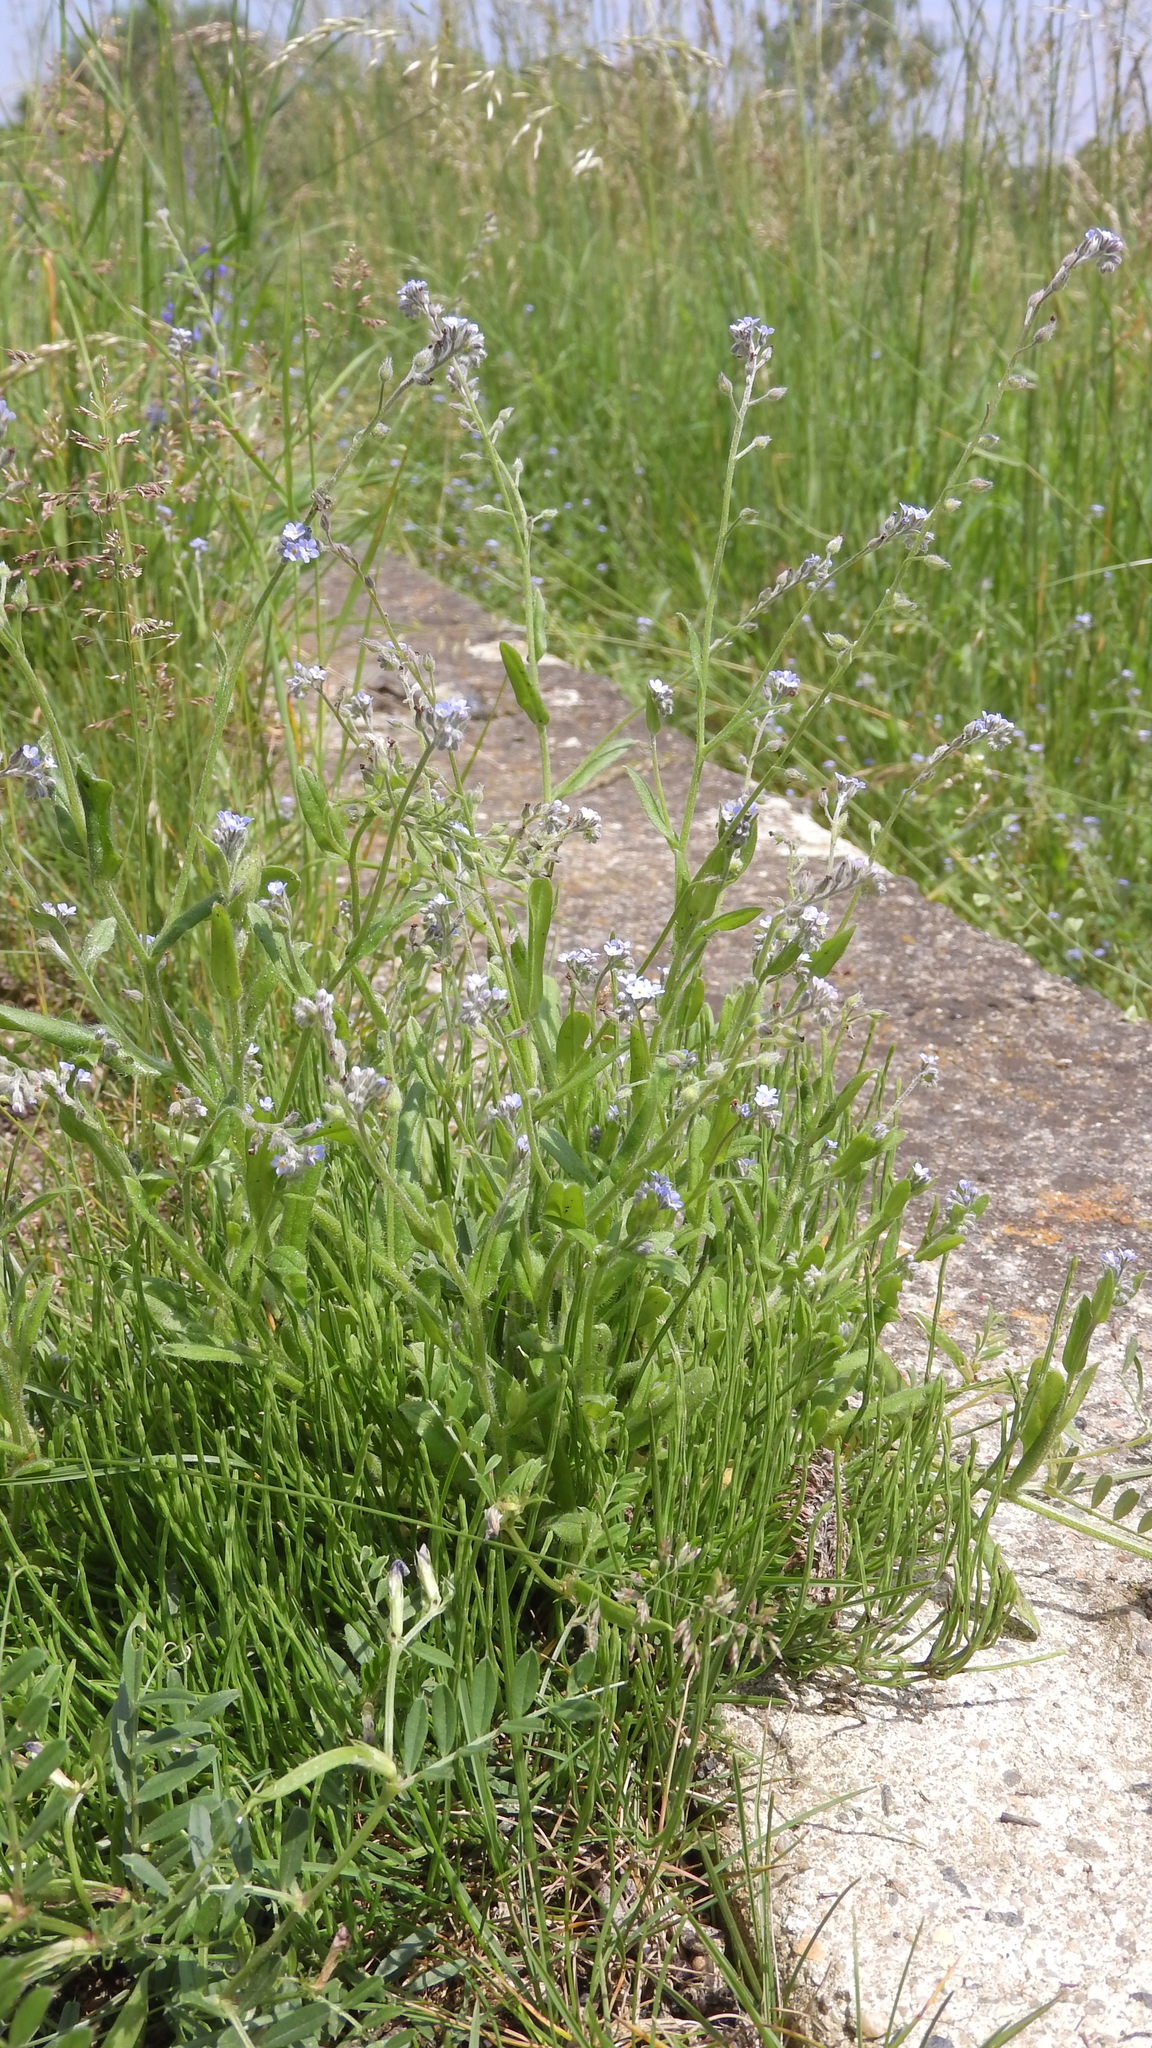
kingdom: Plantae
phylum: Tracheophyta
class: Magnoliopsida
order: Boraginales
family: Boraginaceae
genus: Myosotis
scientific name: Myosotis arvensis
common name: Field forget-me-not
